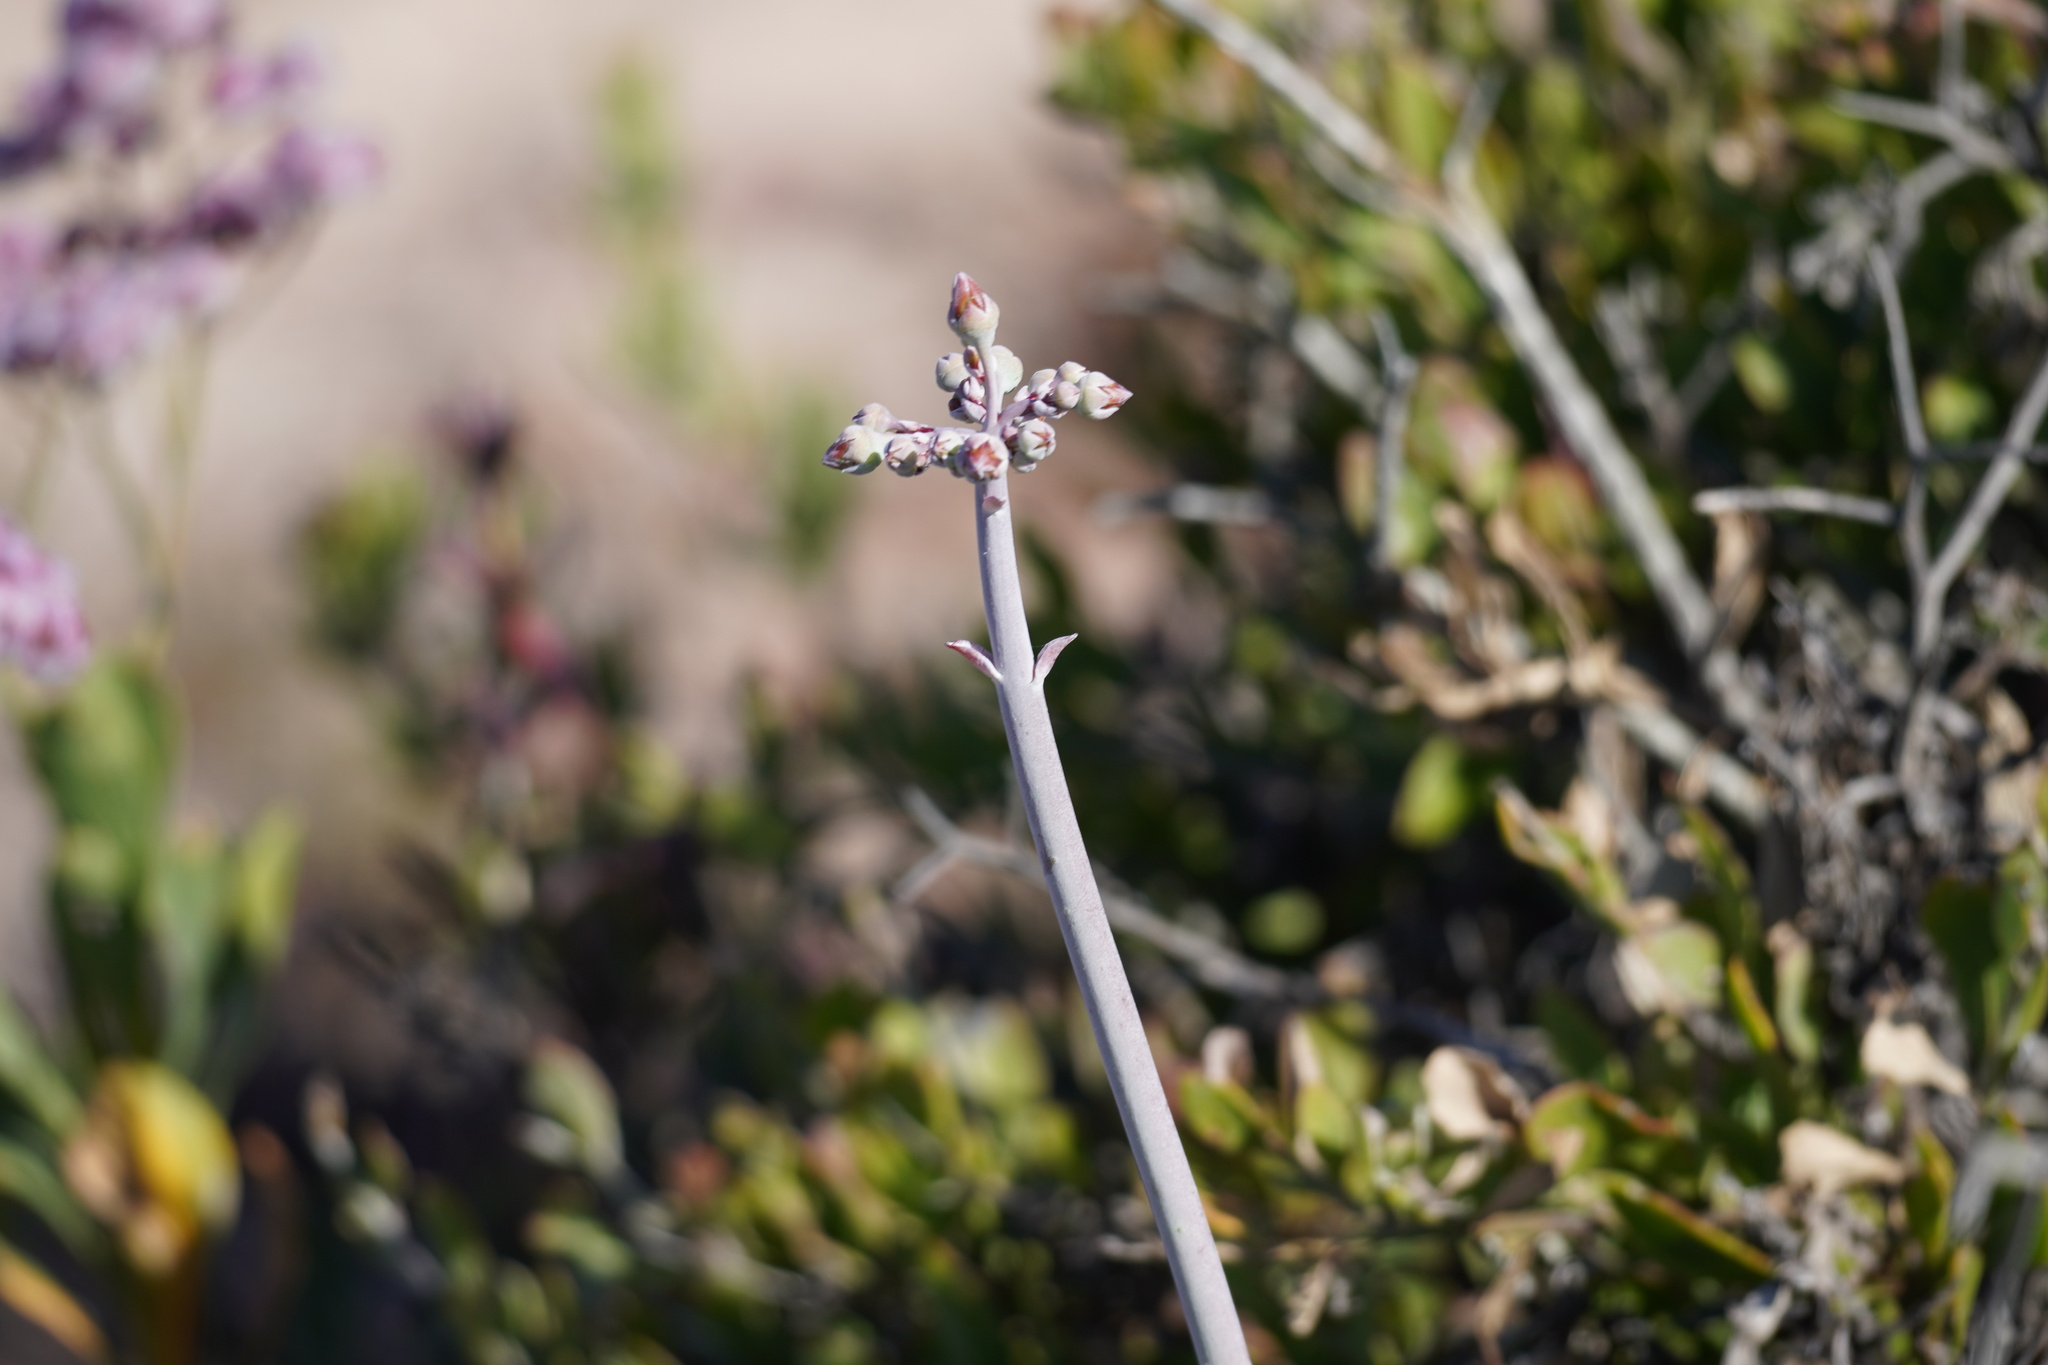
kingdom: Plantae
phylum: Tracheophyta
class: Magnoliopsida
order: Saxifragales
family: Crassulaceae
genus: Cotyledon
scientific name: Cotyledon orbiculata
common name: Pig's ear
